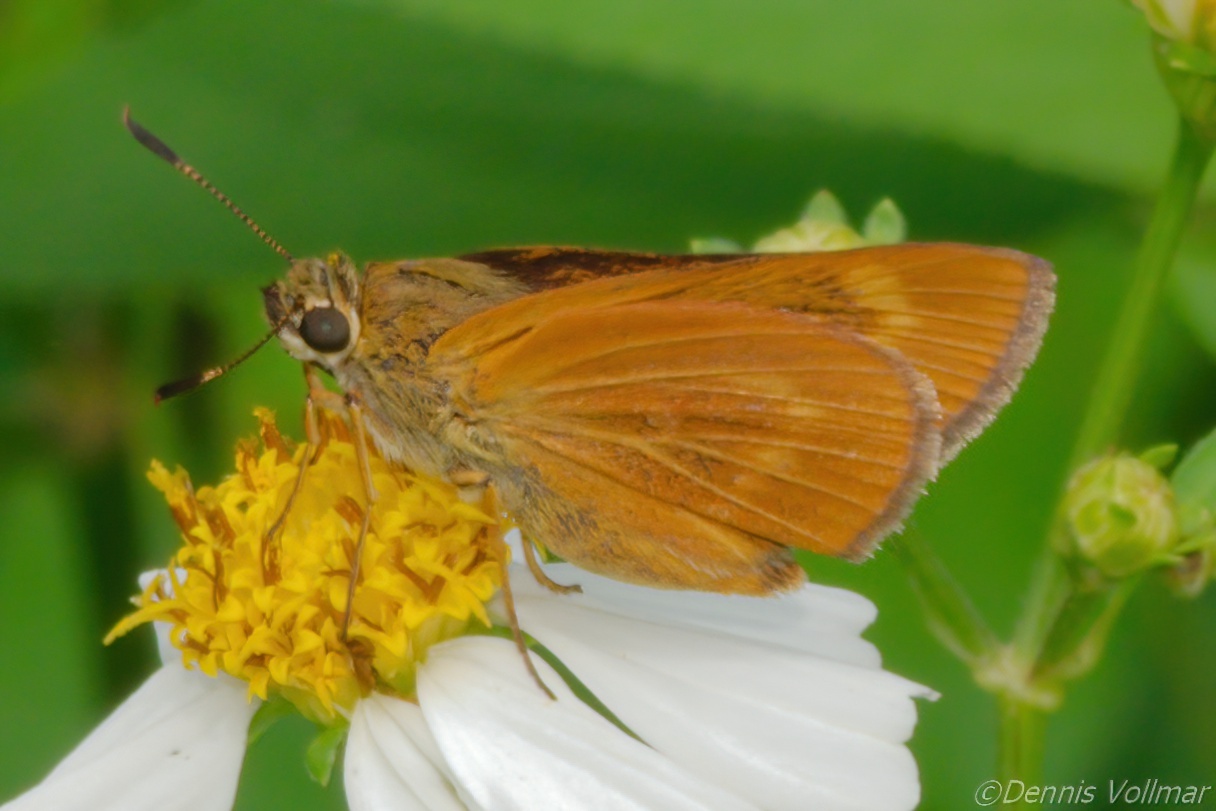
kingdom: Animalia
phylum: Arthropoda
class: Insecta
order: Lepidoptera
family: Hesperiidae
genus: Problema
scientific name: Problema byssus
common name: Byssus skipper
